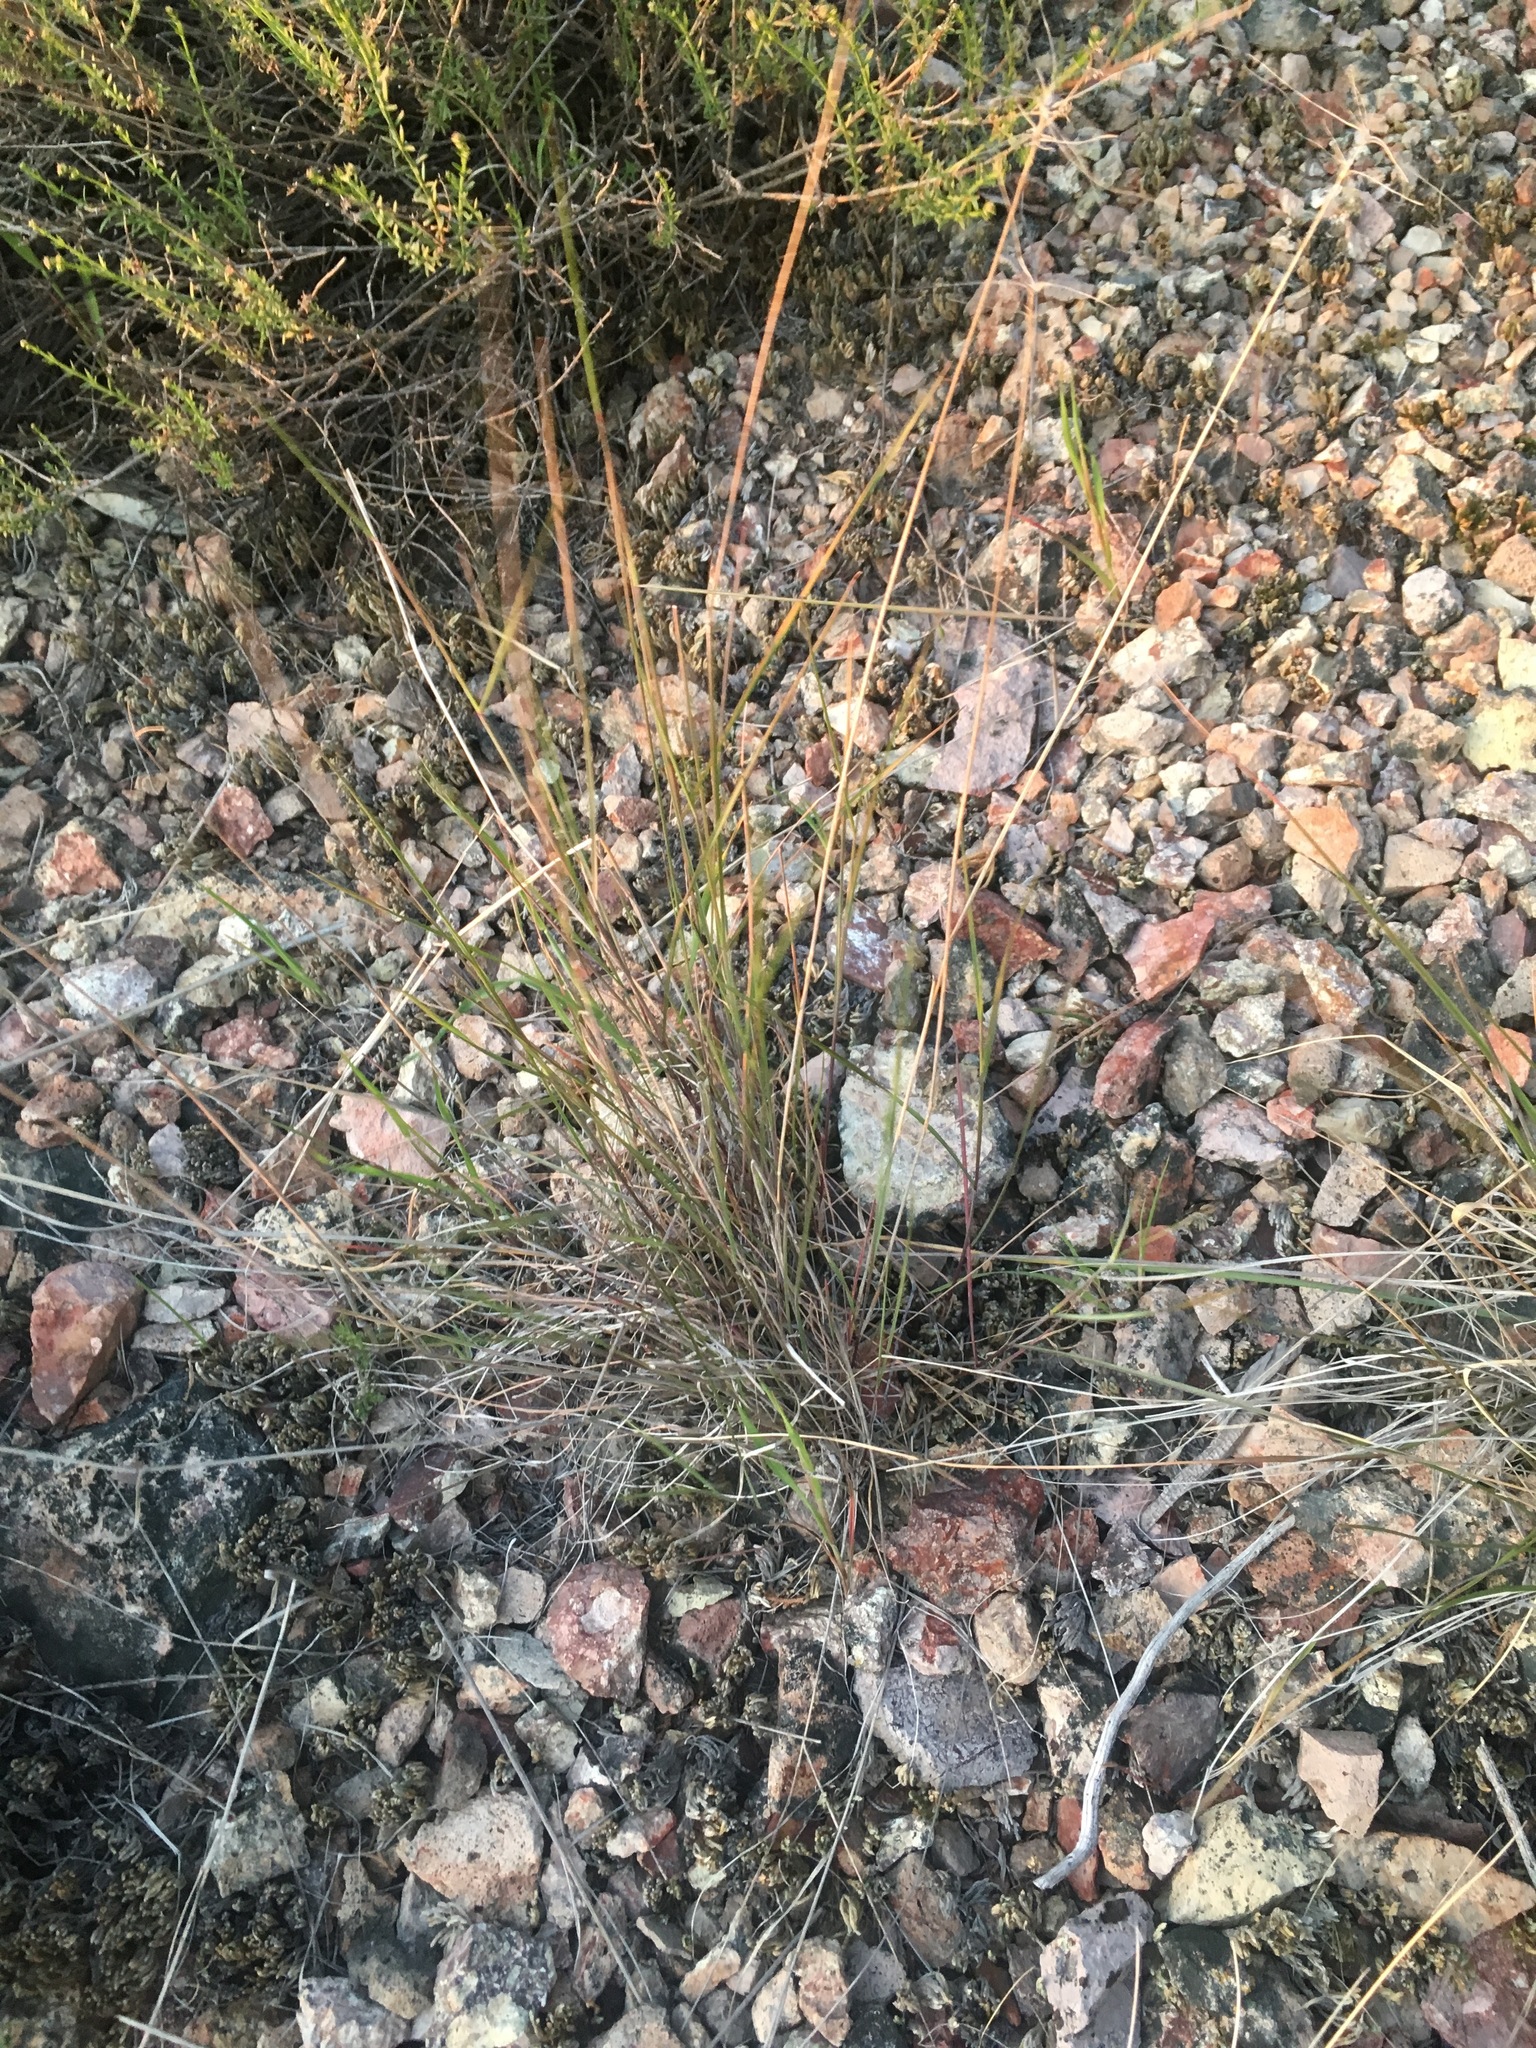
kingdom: Plantae
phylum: Tracheophyta
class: Liliopsida
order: Poales
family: Poaceae
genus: Elymus
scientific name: Elymus elymoides
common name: Bottlebrush squirreltail
